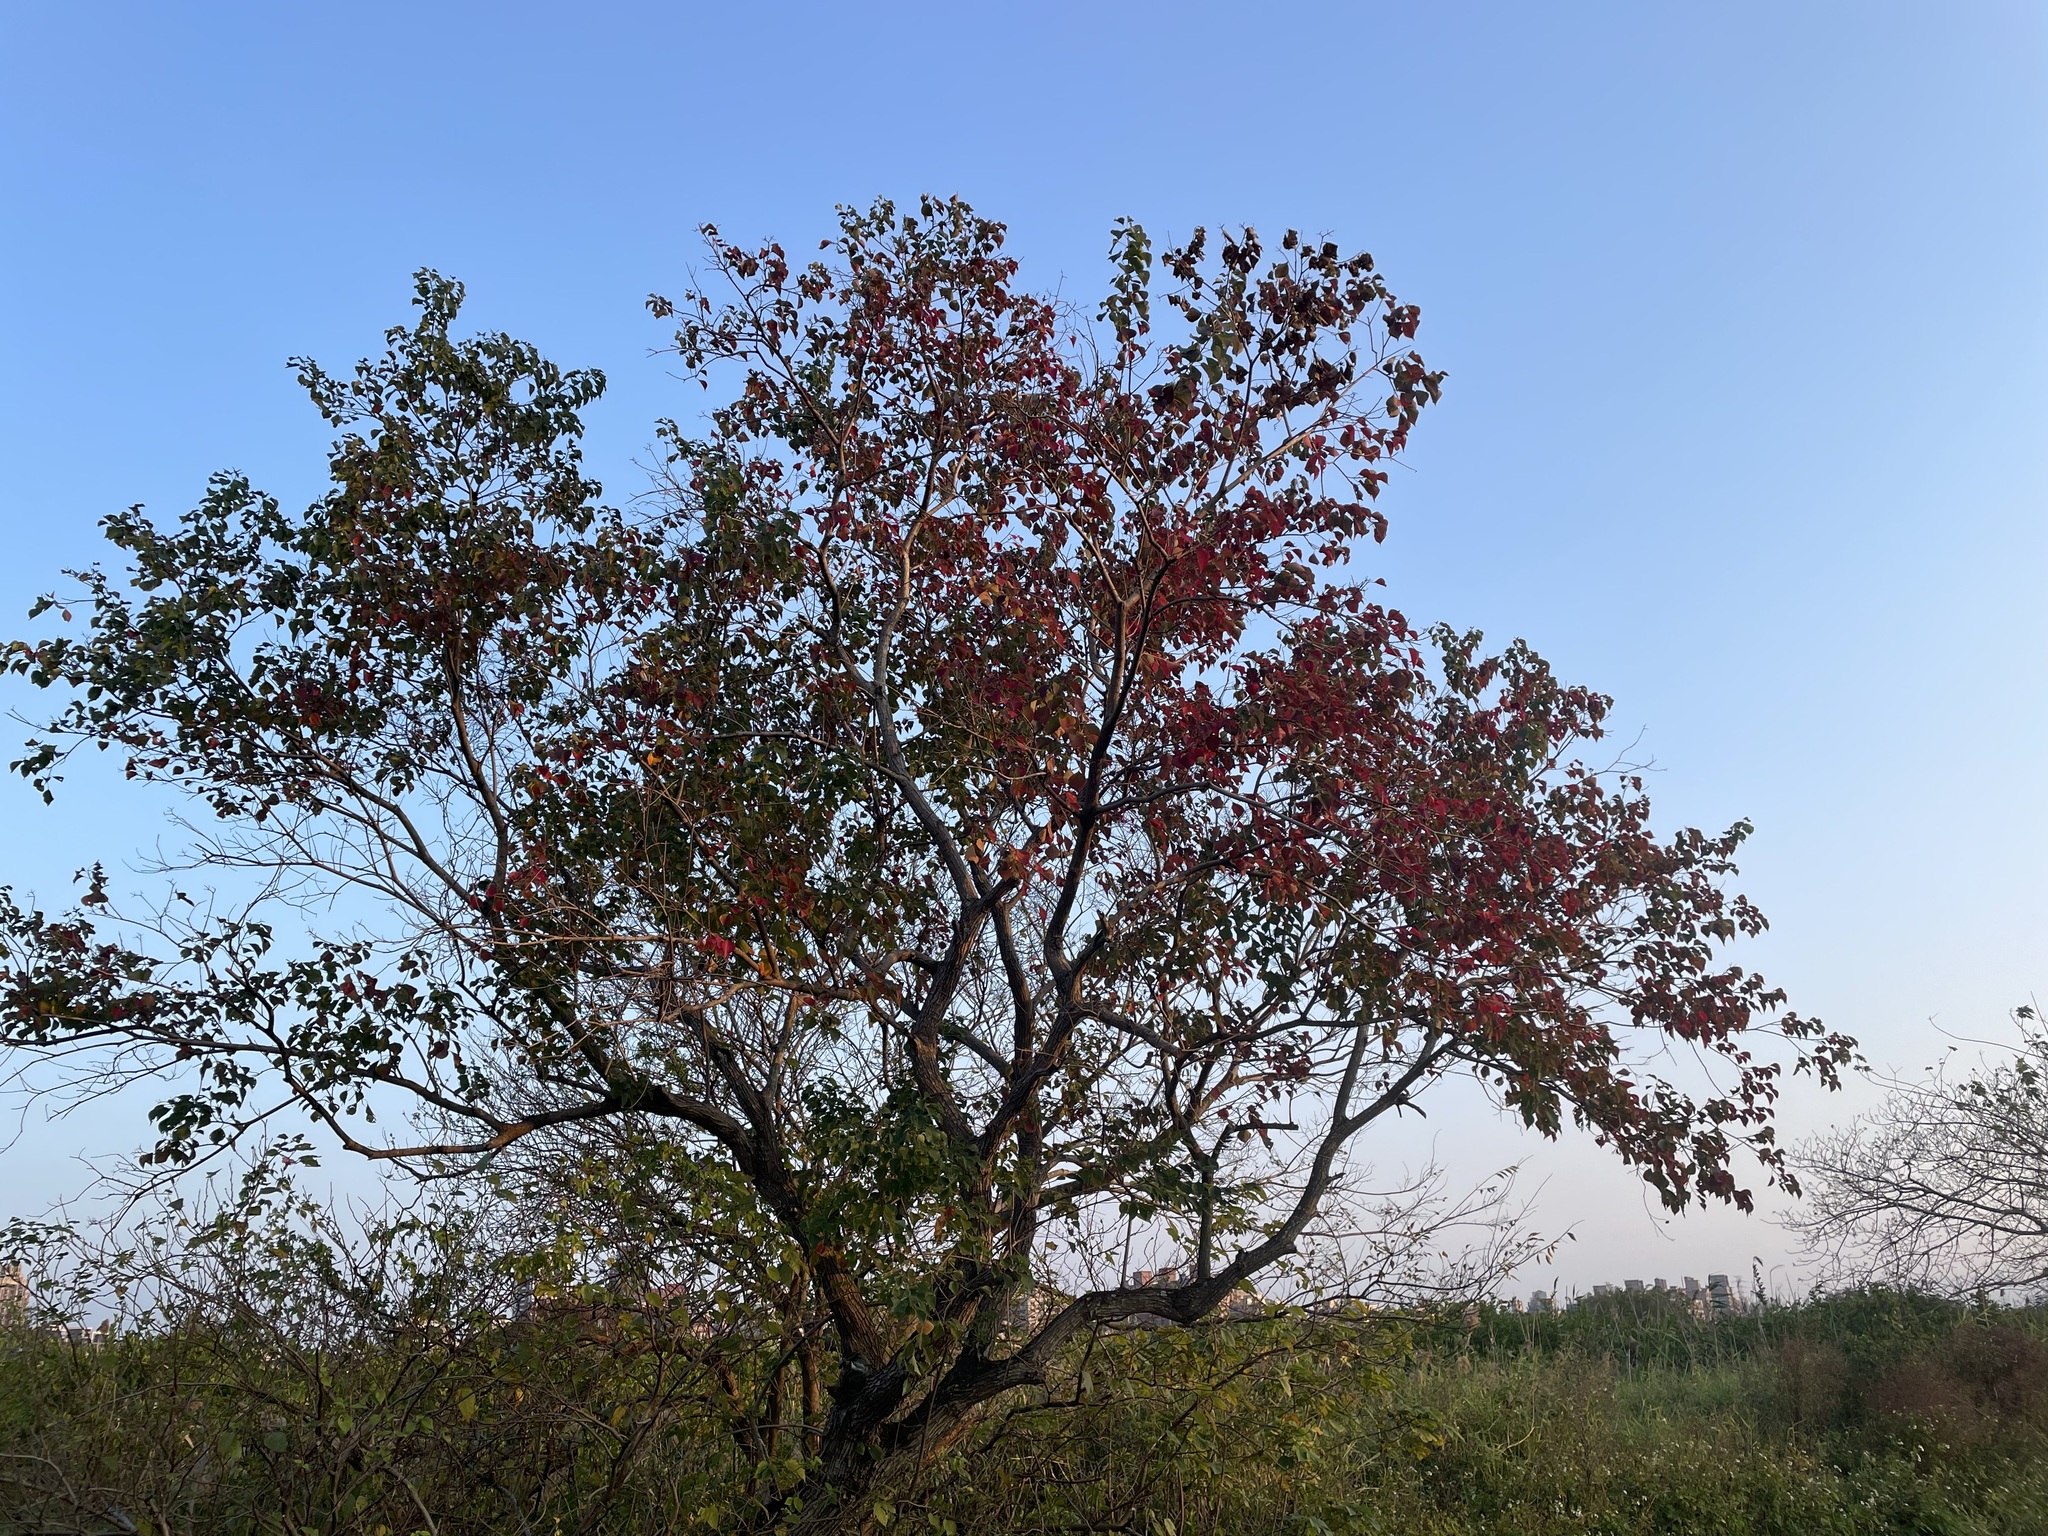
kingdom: Plantae
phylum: Tracheophyta
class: Magnoliopsida
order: Malpighiales
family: Euphorbiaceae
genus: Triadica
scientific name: Triadica sebifera
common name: Chinese tallow
